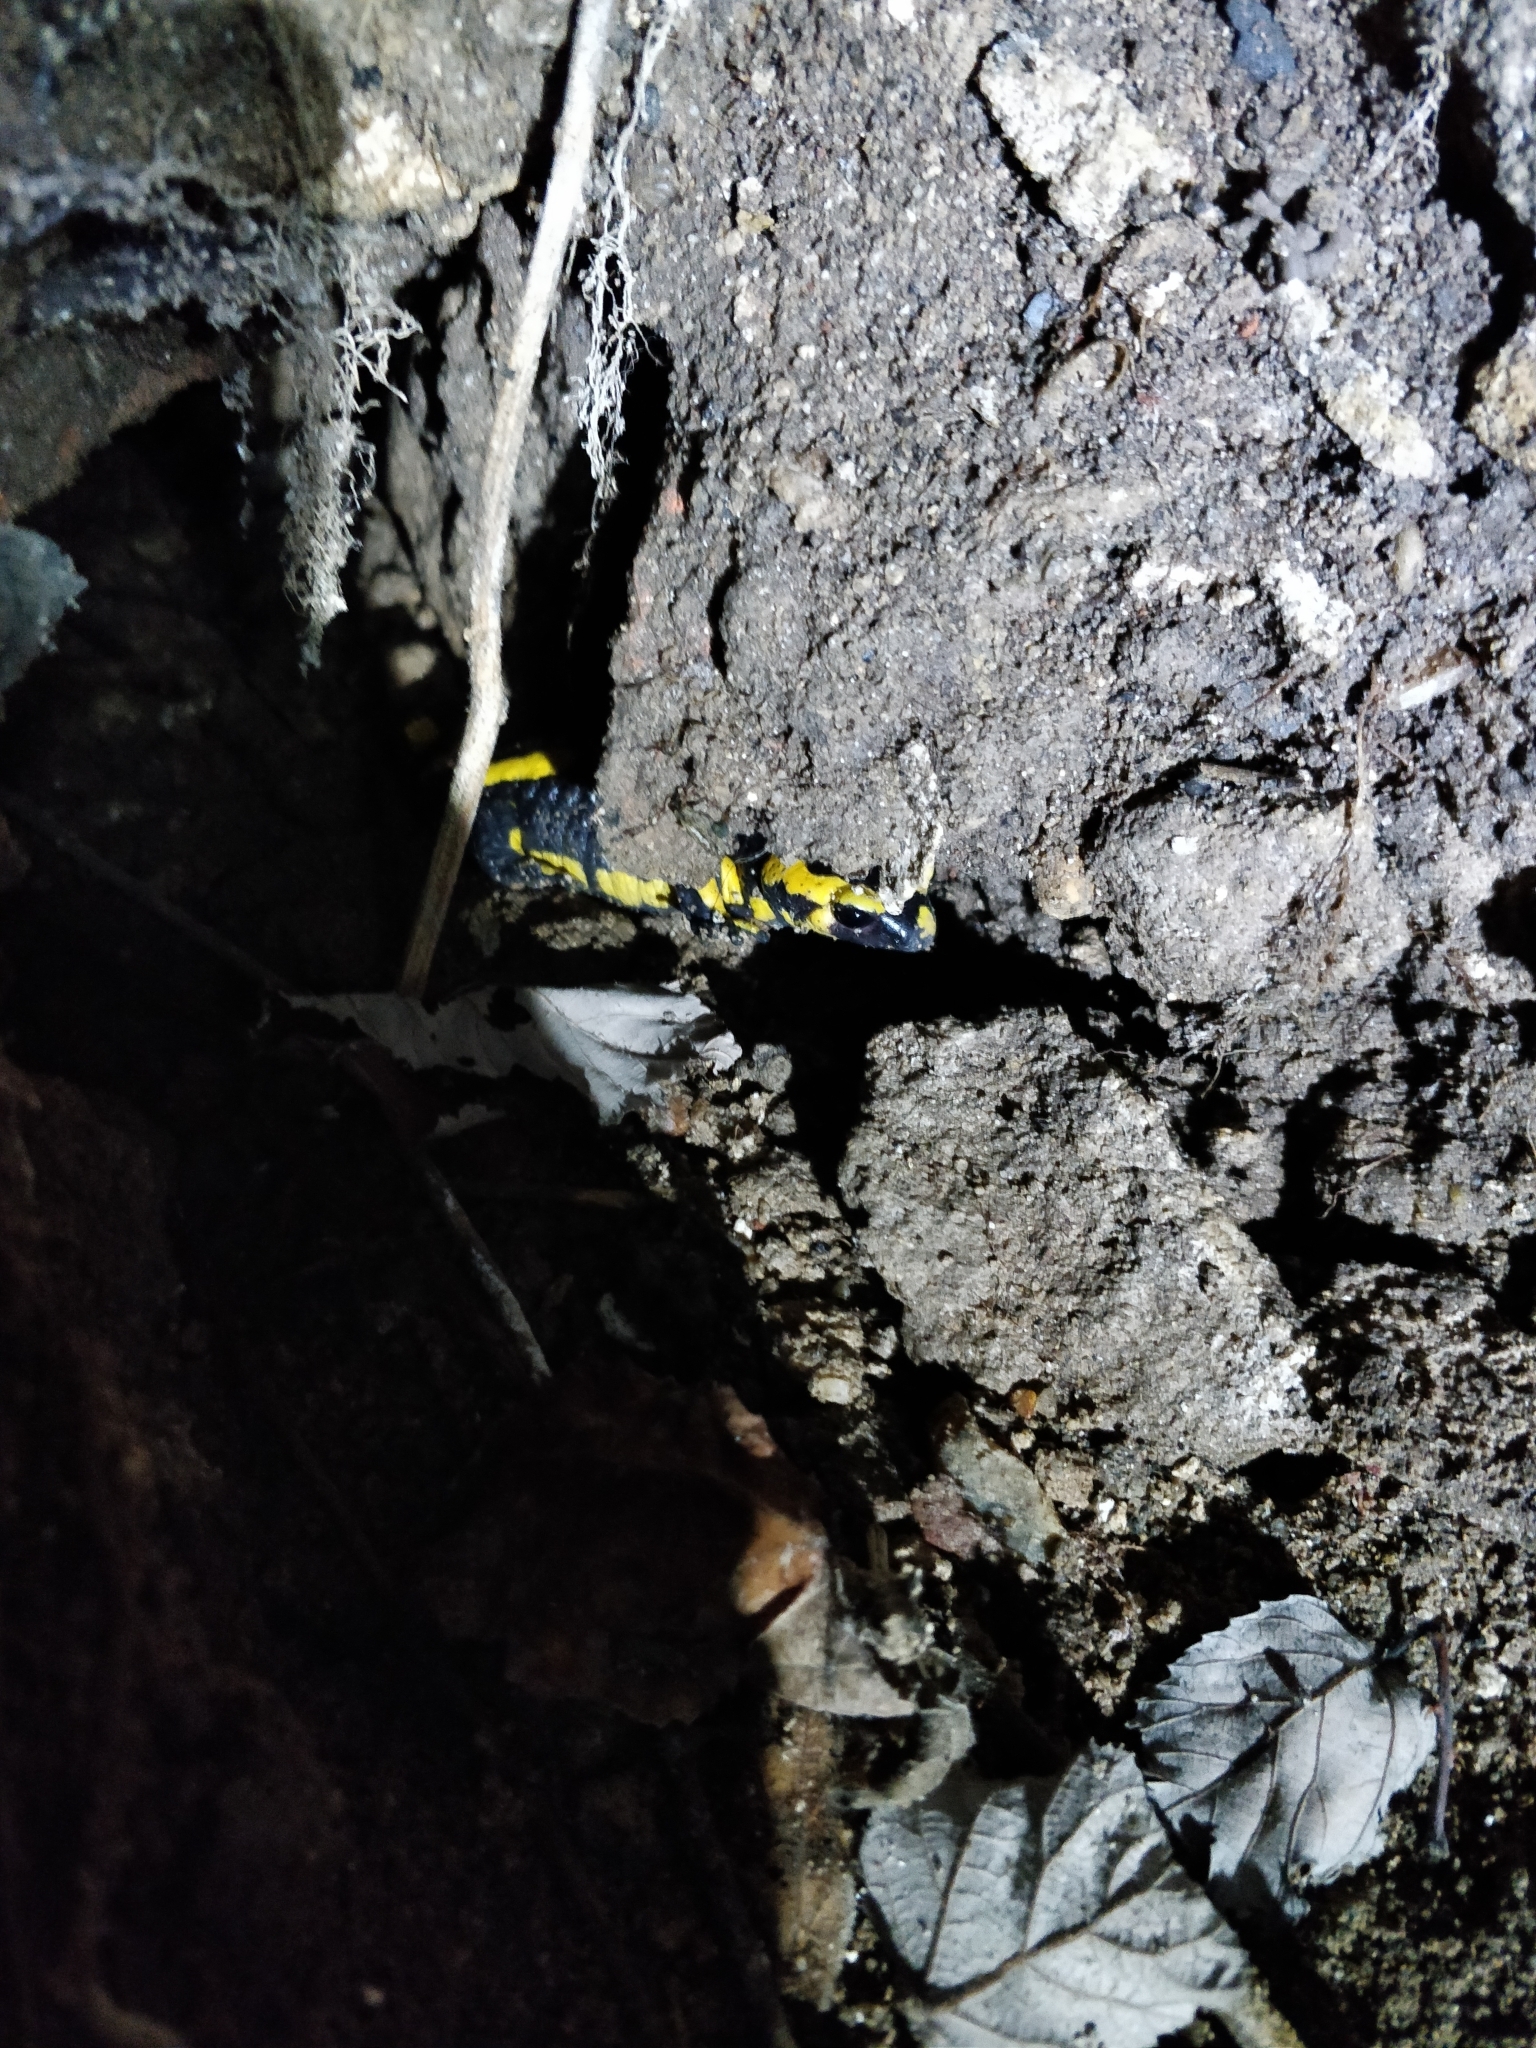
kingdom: Animalia
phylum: Chordata
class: Amphibia
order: Caudata
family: Salamandridae
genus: Salamandra
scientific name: Salamandra salamandra
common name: Fire salamander
